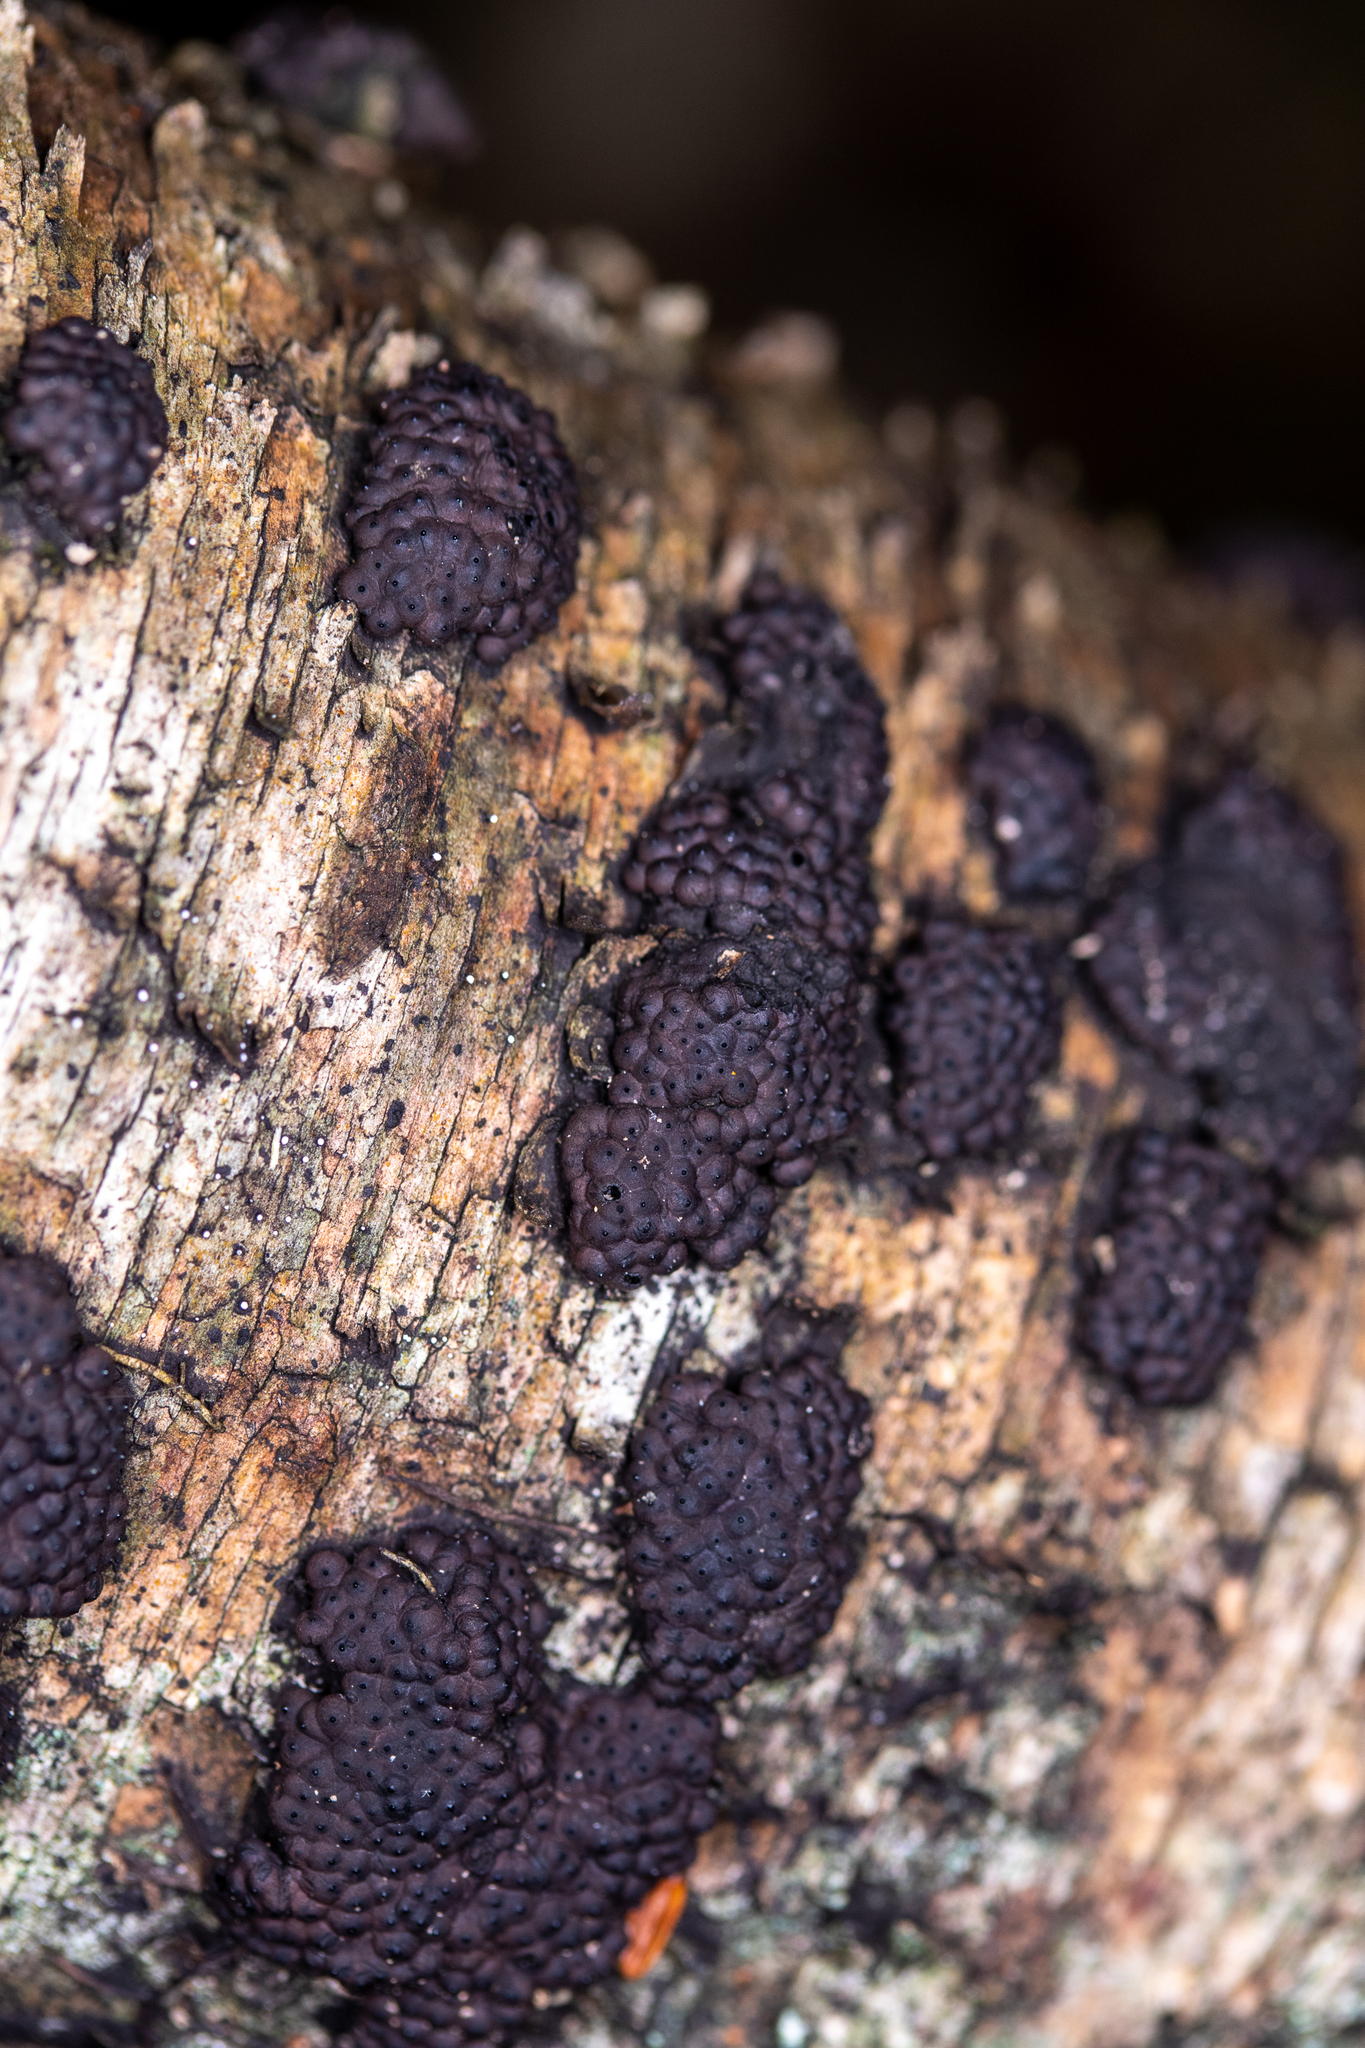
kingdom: Fungi
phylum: Ascomycota
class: Sordariomycetes
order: Xylariales
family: Hypoxylaceae
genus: Jackrogersella
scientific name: Jackrogersella multiformis
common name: Birch woodwart
